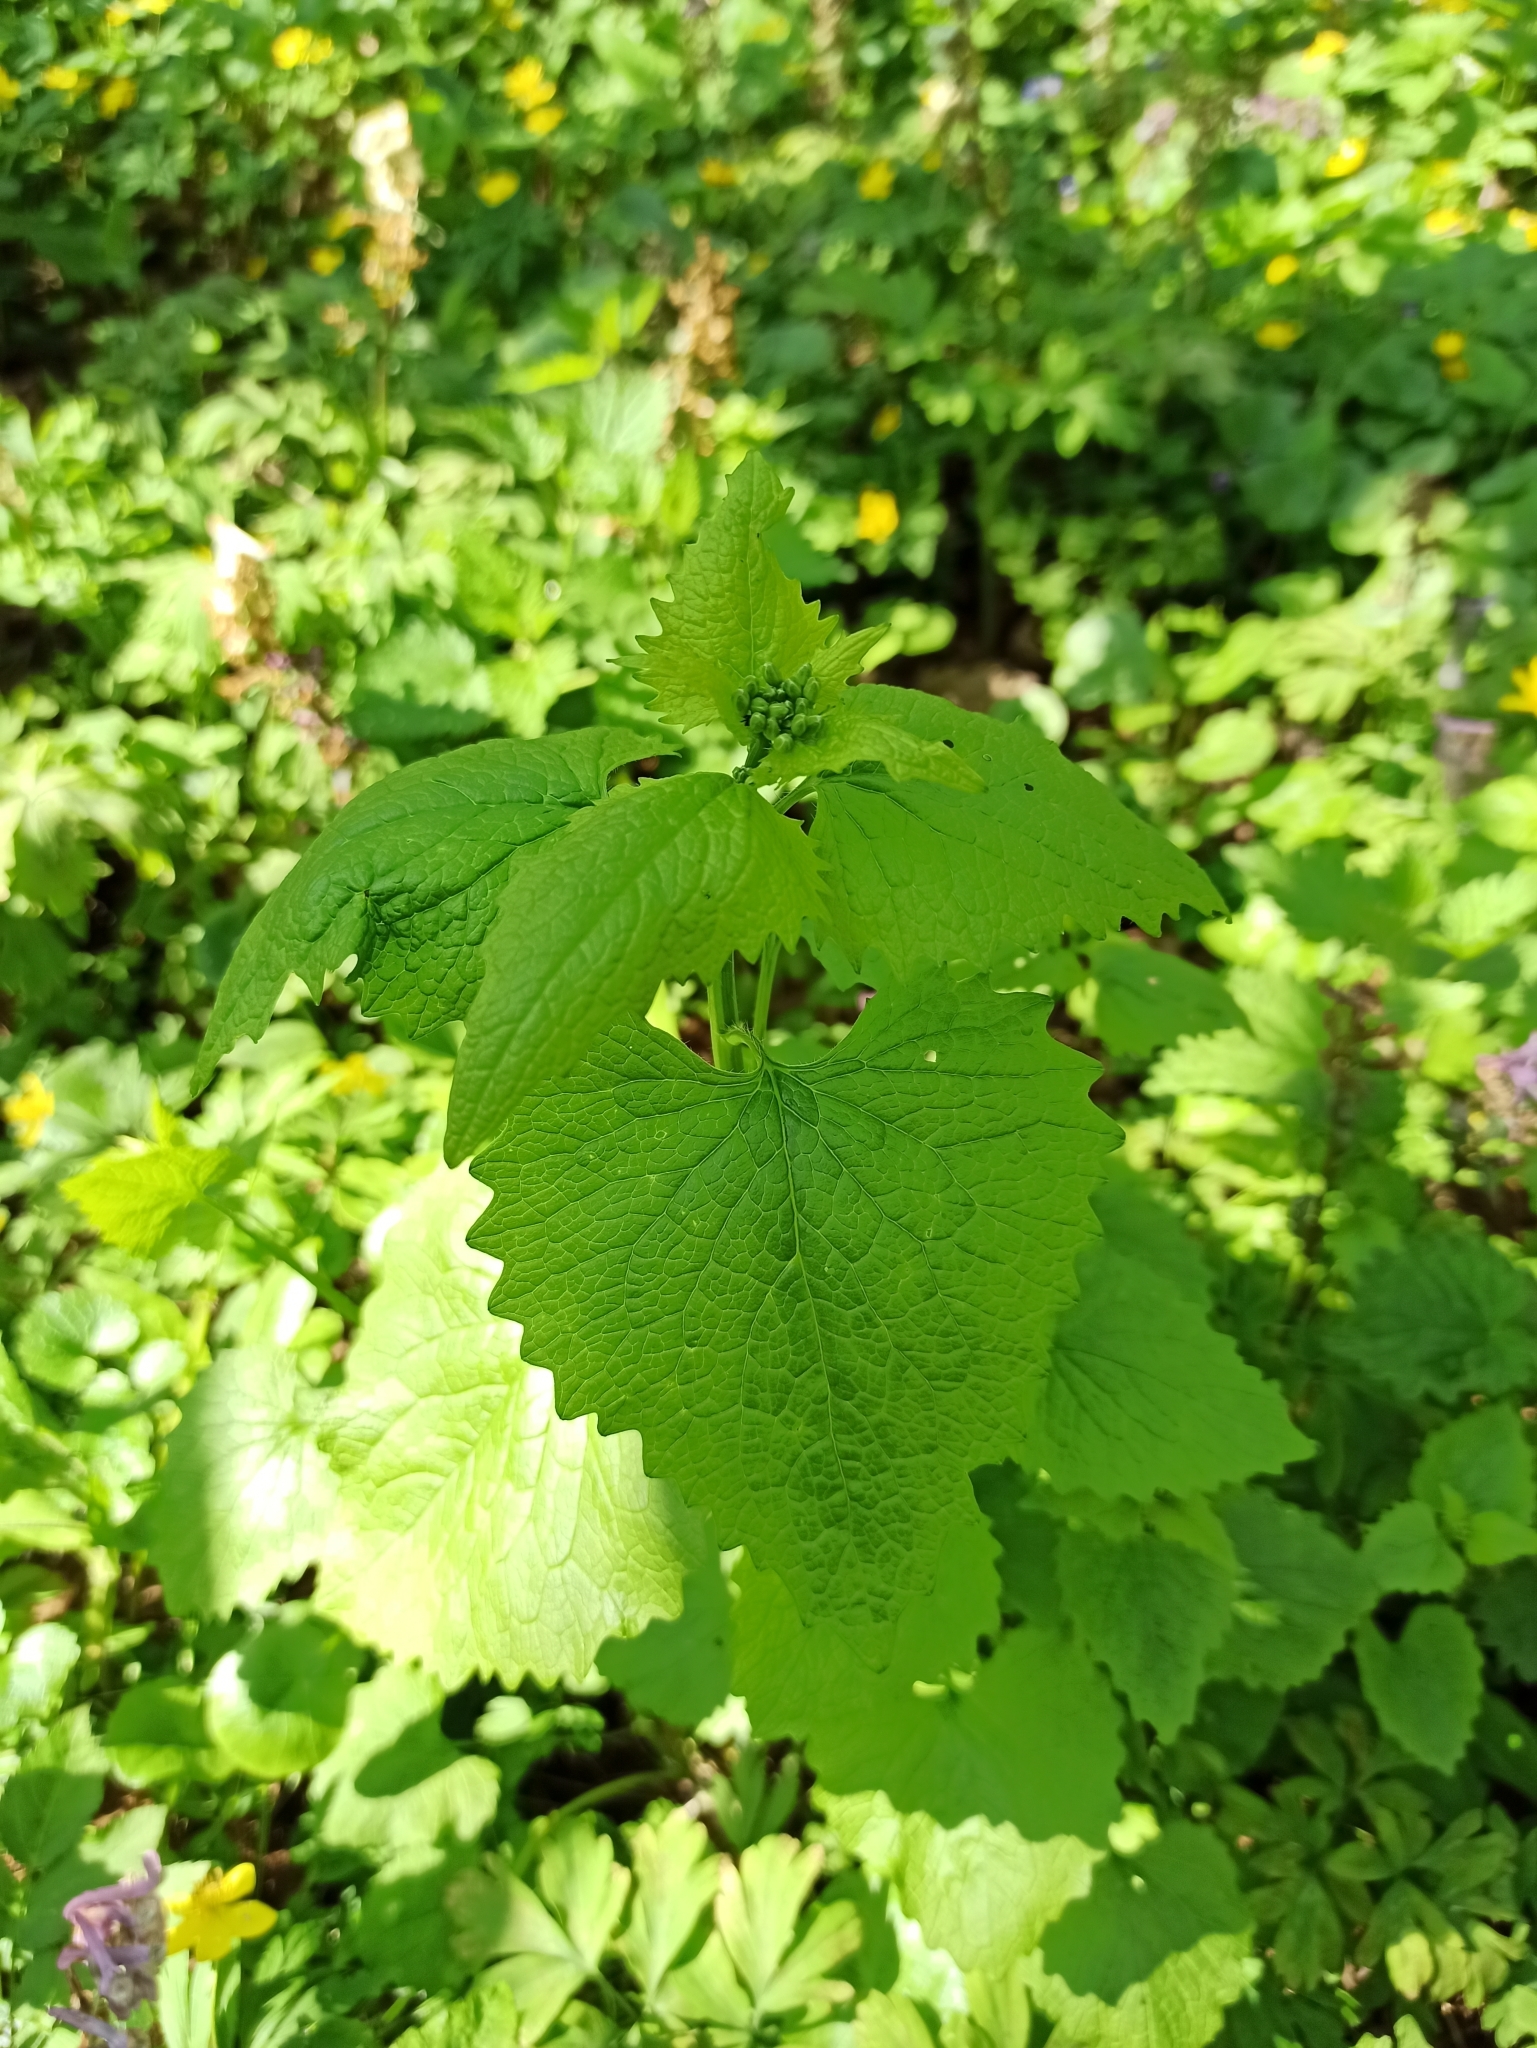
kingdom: Plantae
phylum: Tracheophyta
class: Magnoliopsida
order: Brassicales
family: Brassicaceae
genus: Alliaria
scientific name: Alliaria petiolata
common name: Garlic mustard
